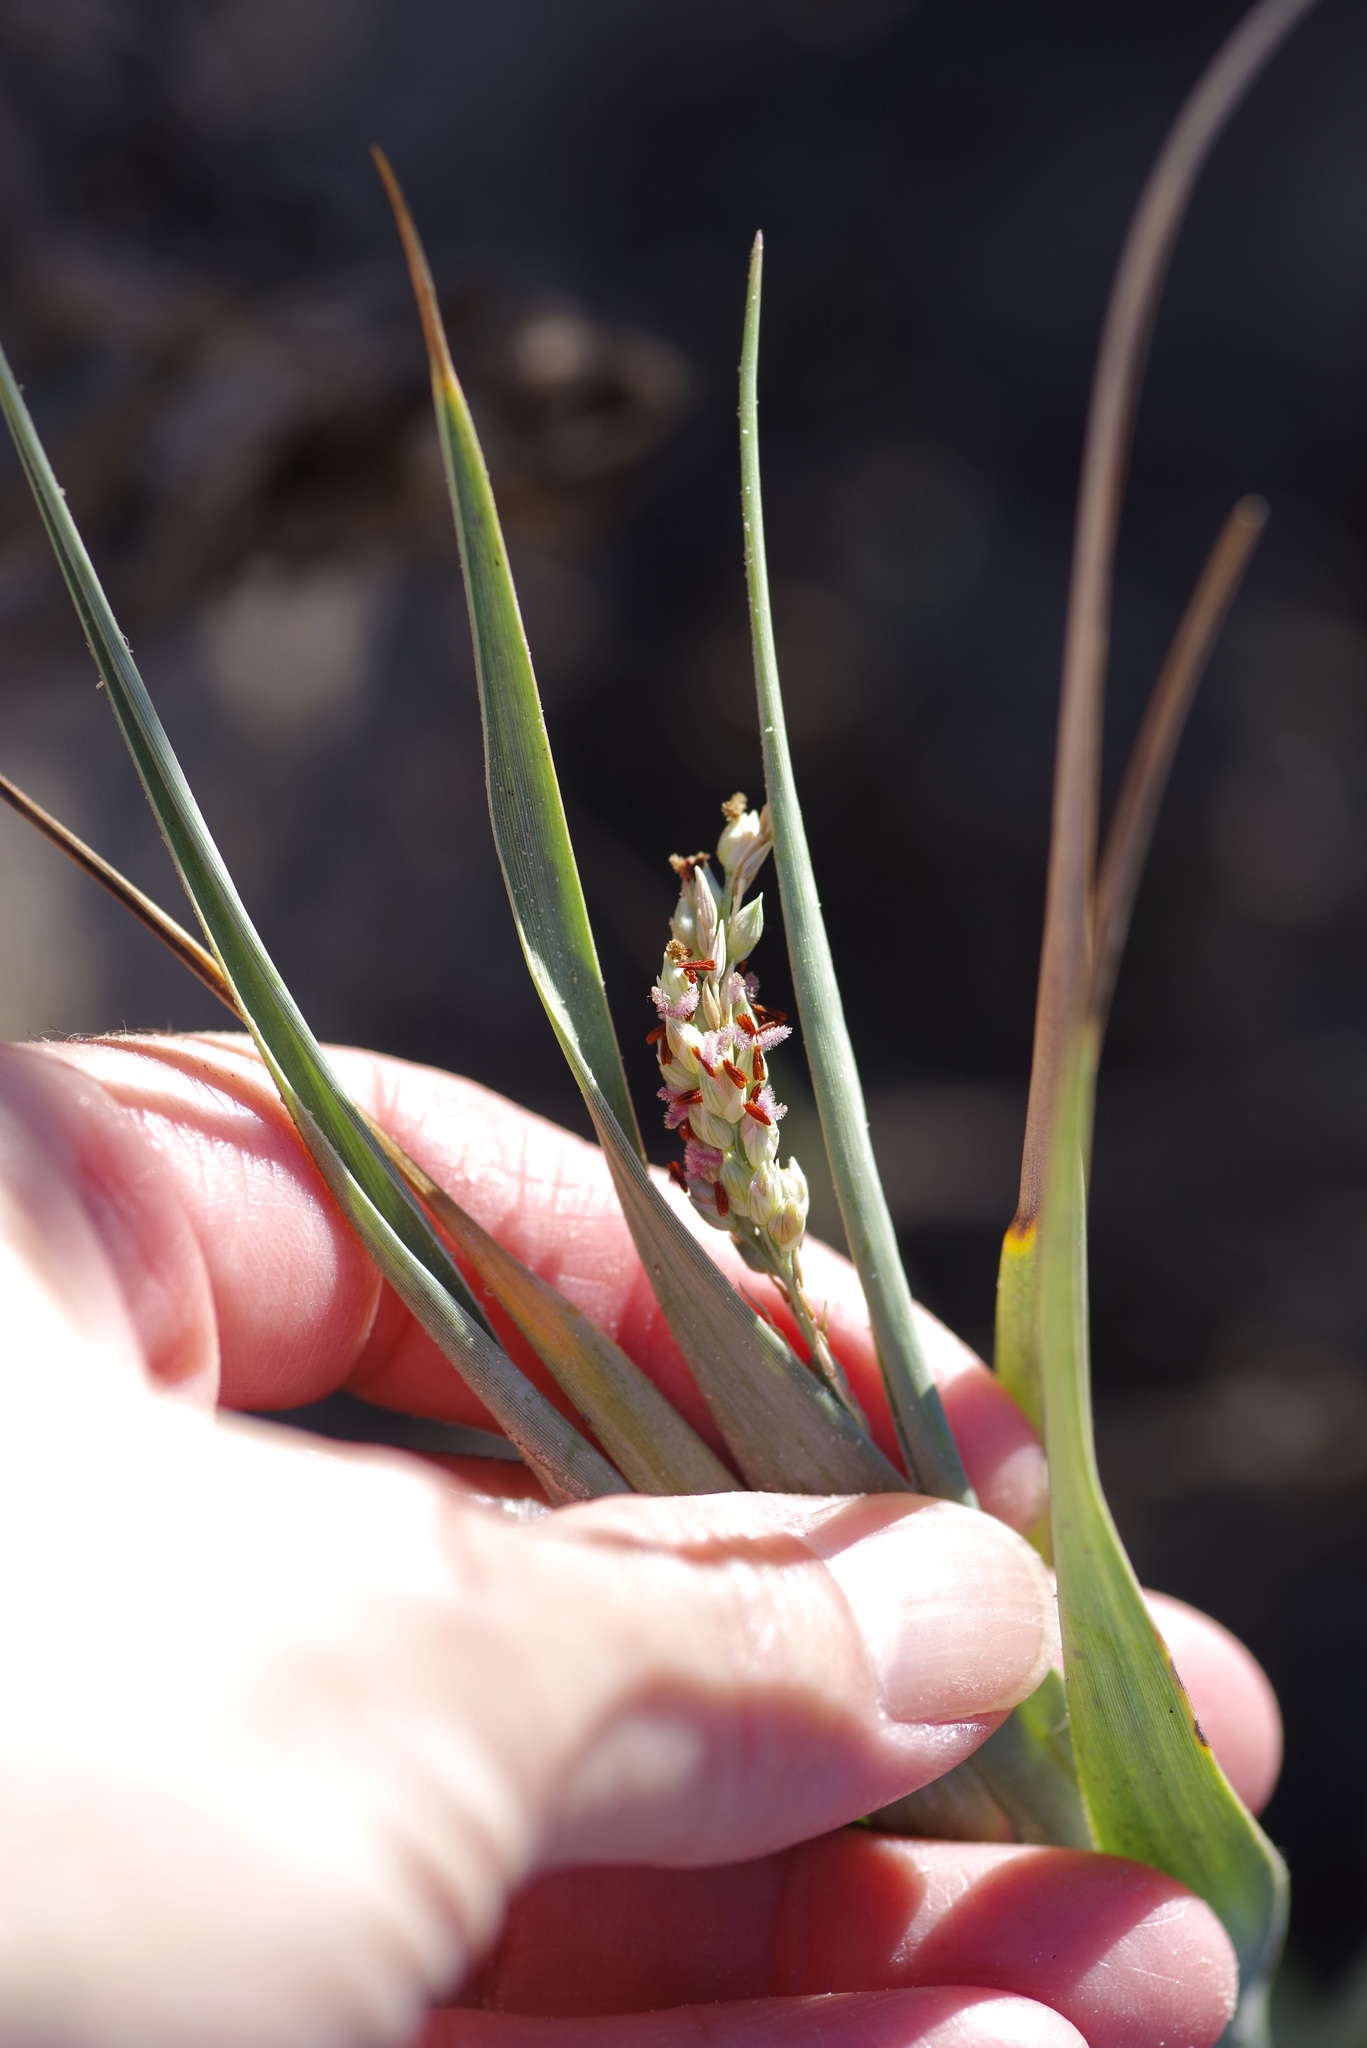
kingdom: Plantae
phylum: Tracheophyta
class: Liliopsida
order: Poales
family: Poaceae
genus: Panicum
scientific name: Panicum amarum
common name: Bitter panicum
